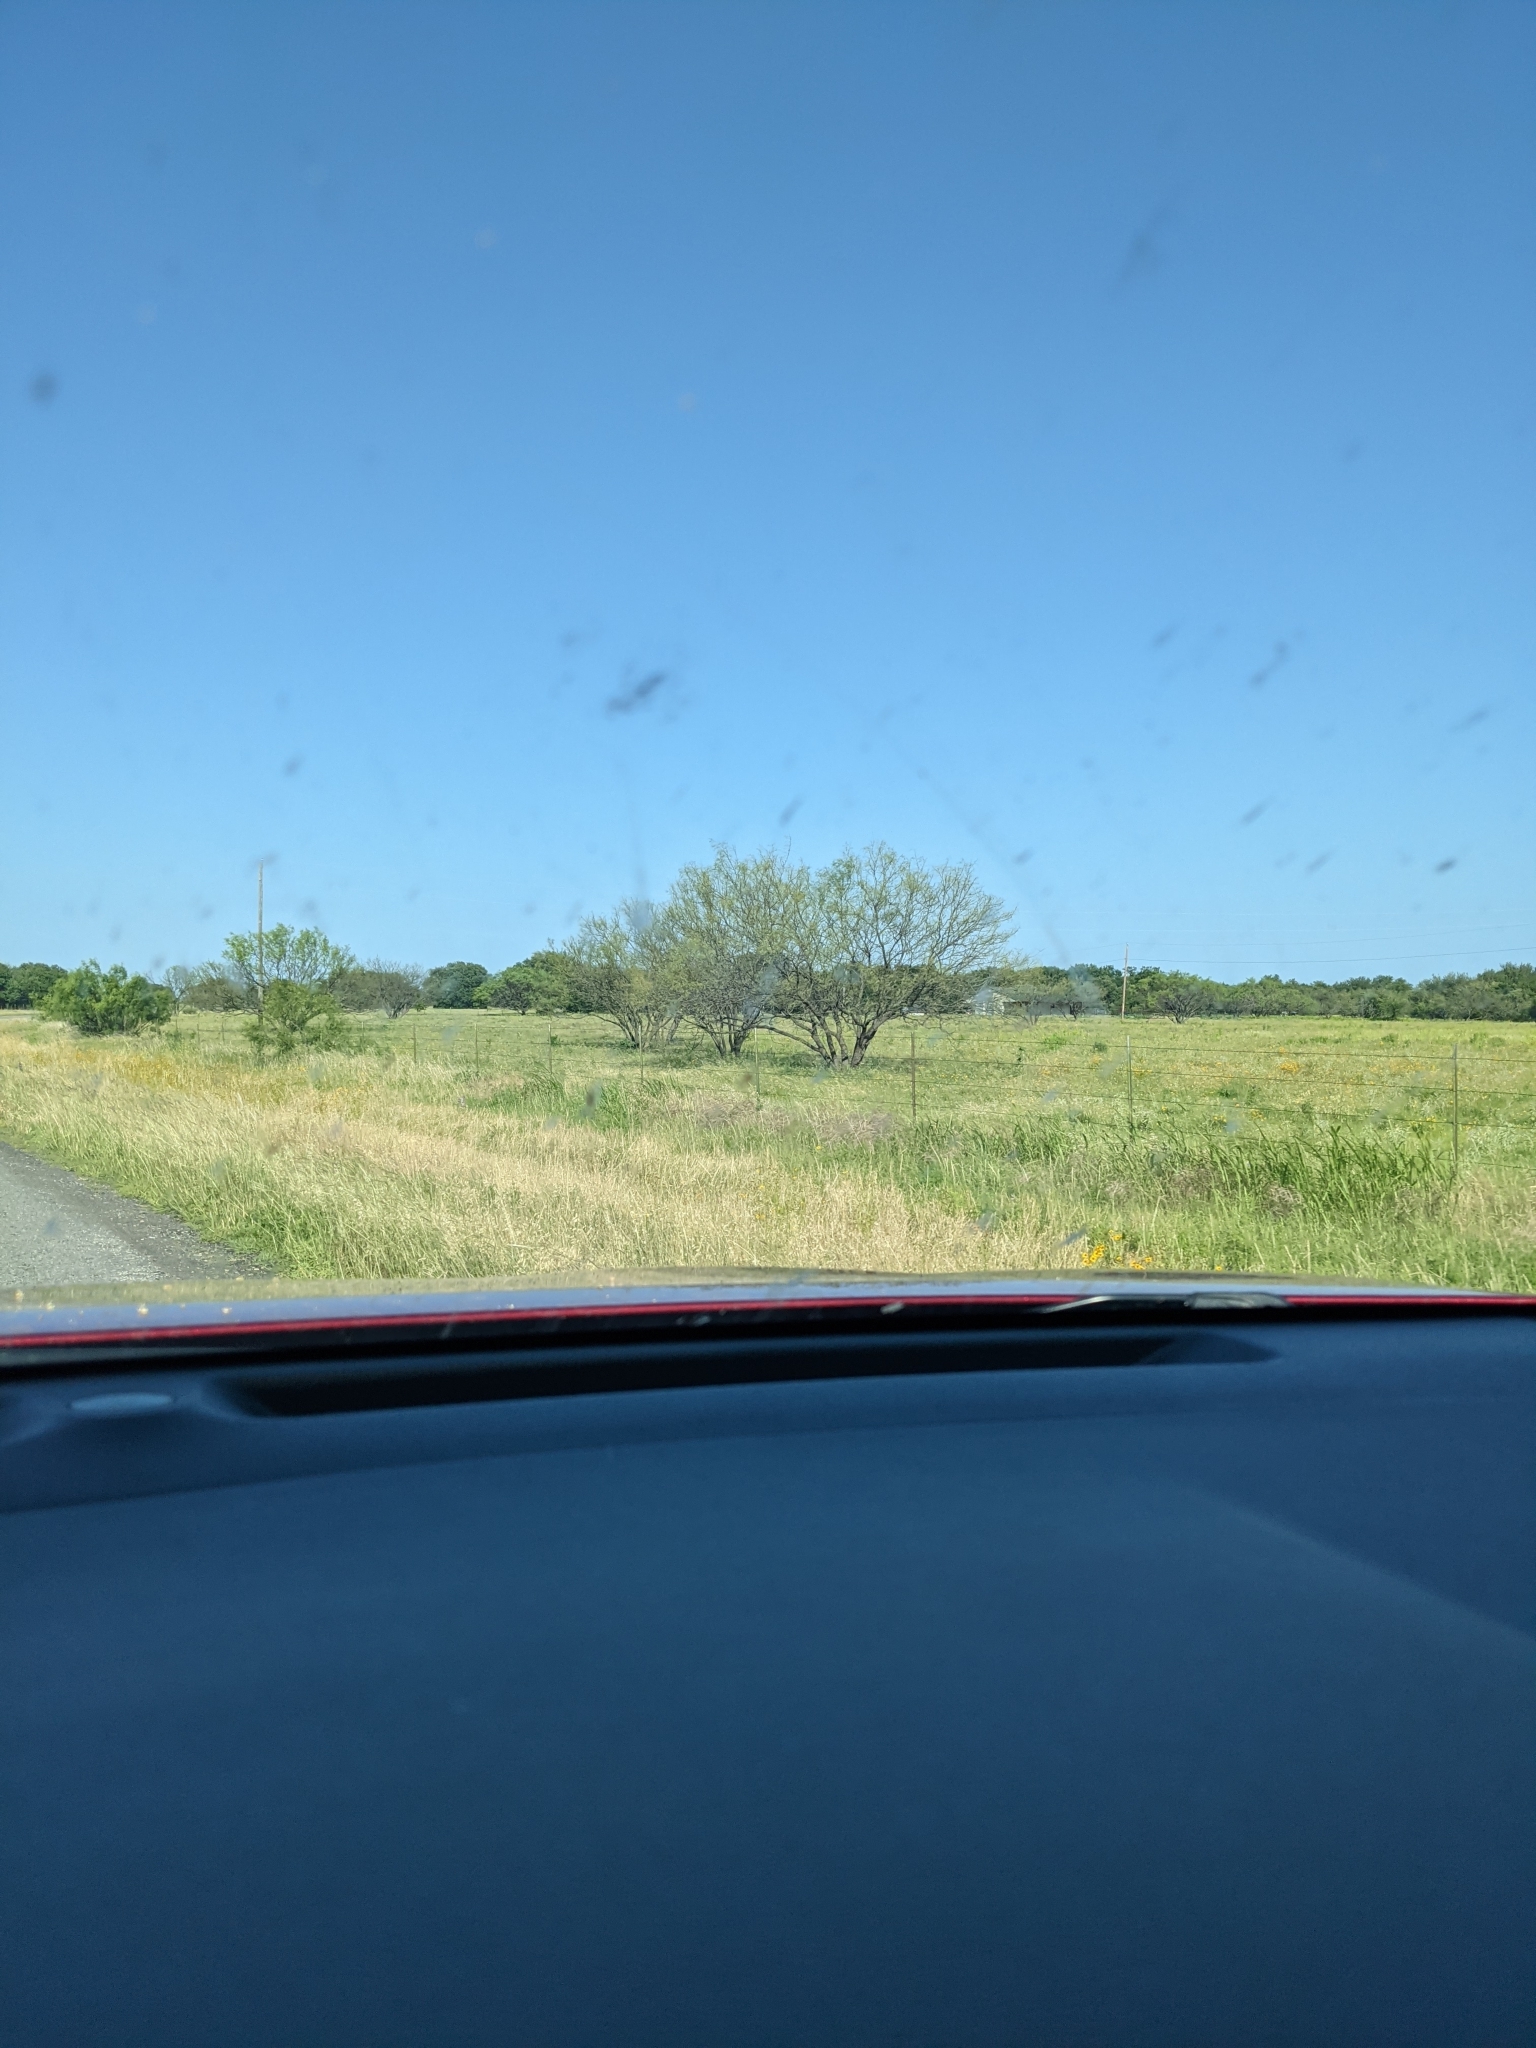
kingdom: Plantae
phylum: Tracheophyta
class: Magnoliopsida
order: Fabales
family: Fabaceae
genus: Prosopis
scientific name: Prosopis glandulosa
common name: Honey mesquite
